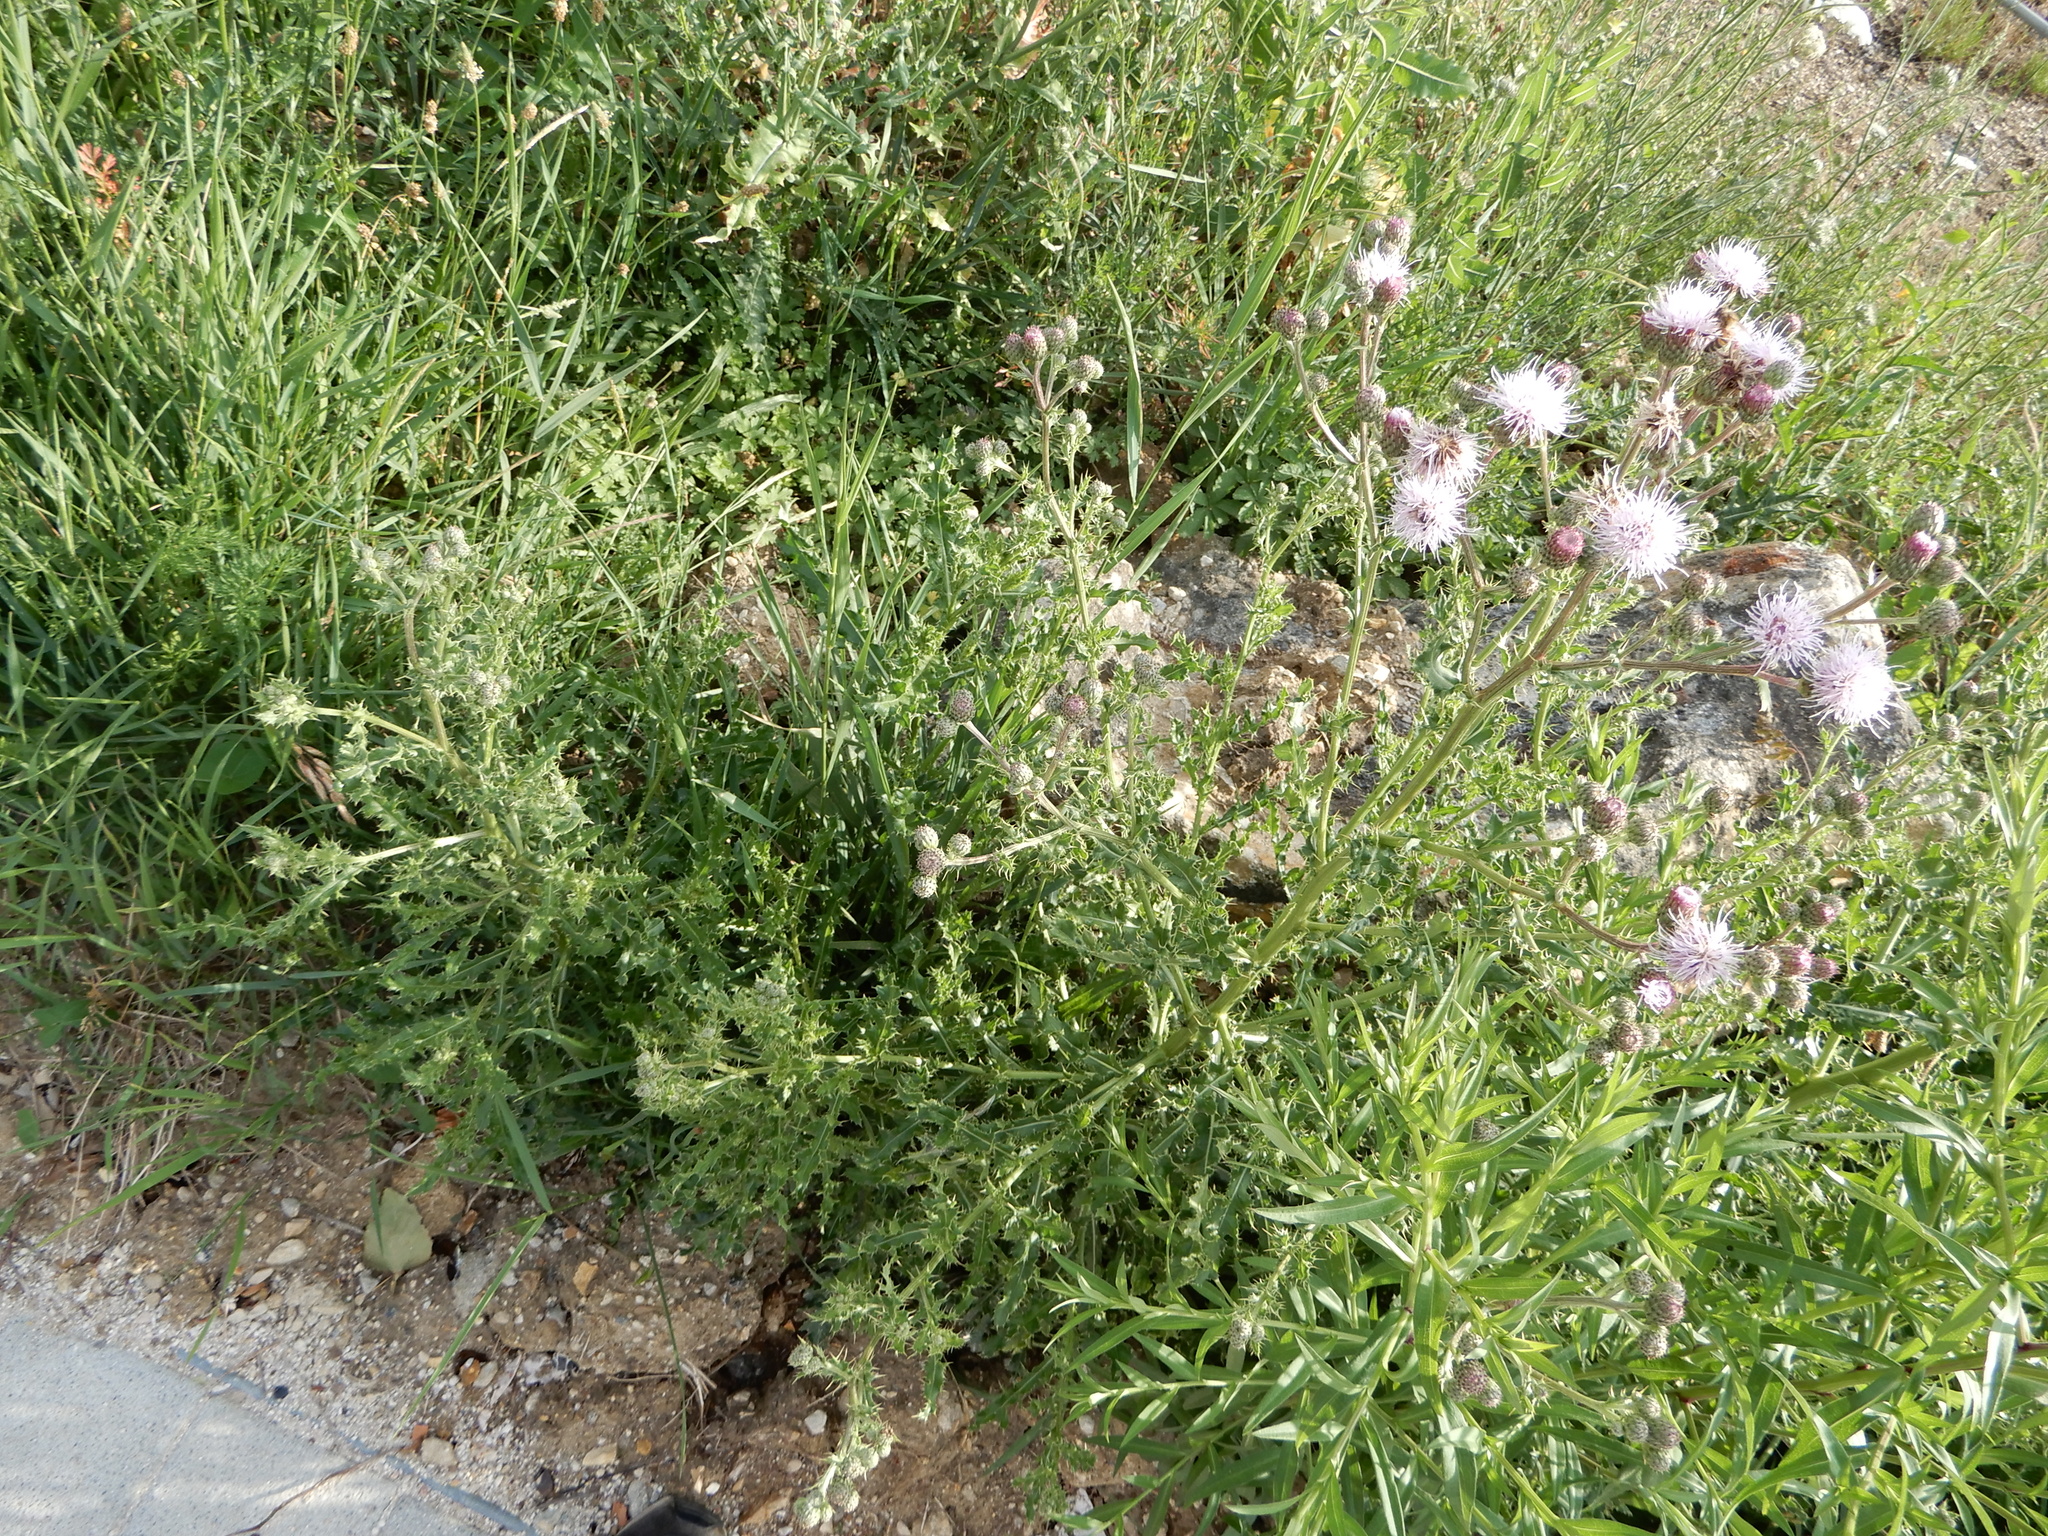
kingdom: Plantae
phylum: Tracheophyta
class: Magnoliopsida
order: Asterales
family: Asteraceae
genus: Cirsium
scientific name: Cirsium arvense
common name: Creeping thistle
